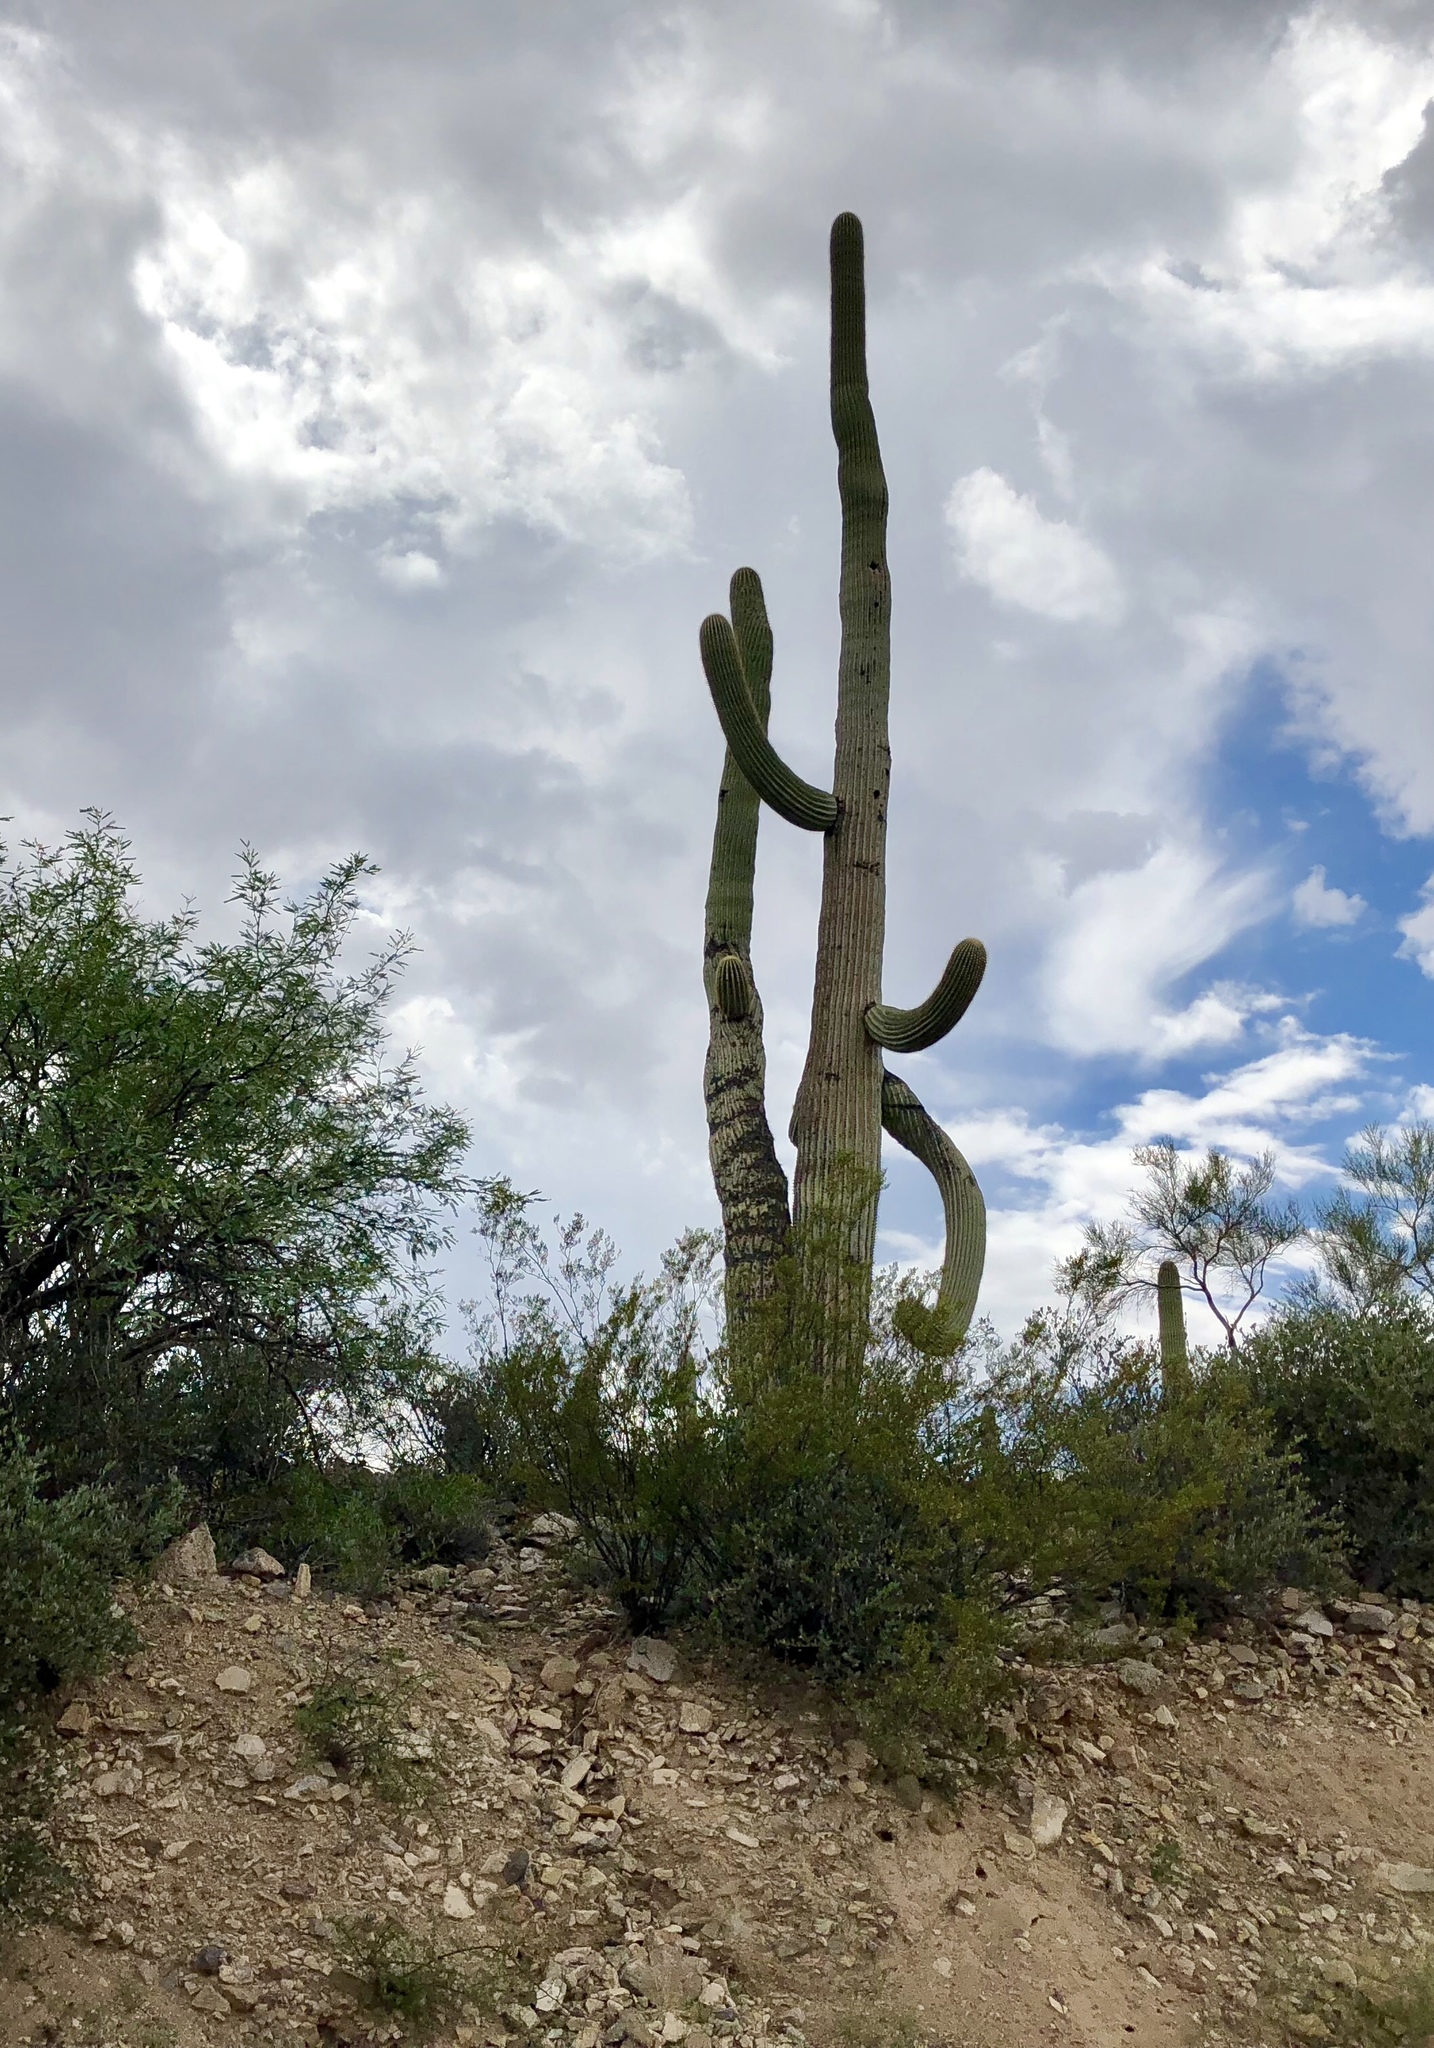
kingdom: Plantae
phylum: Tracheophyta
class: Magnoliopsida
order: Caryophyllales
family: Cactaceae
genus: Carnegiea
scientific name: Carnegiea gigantea
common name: Saguaro
